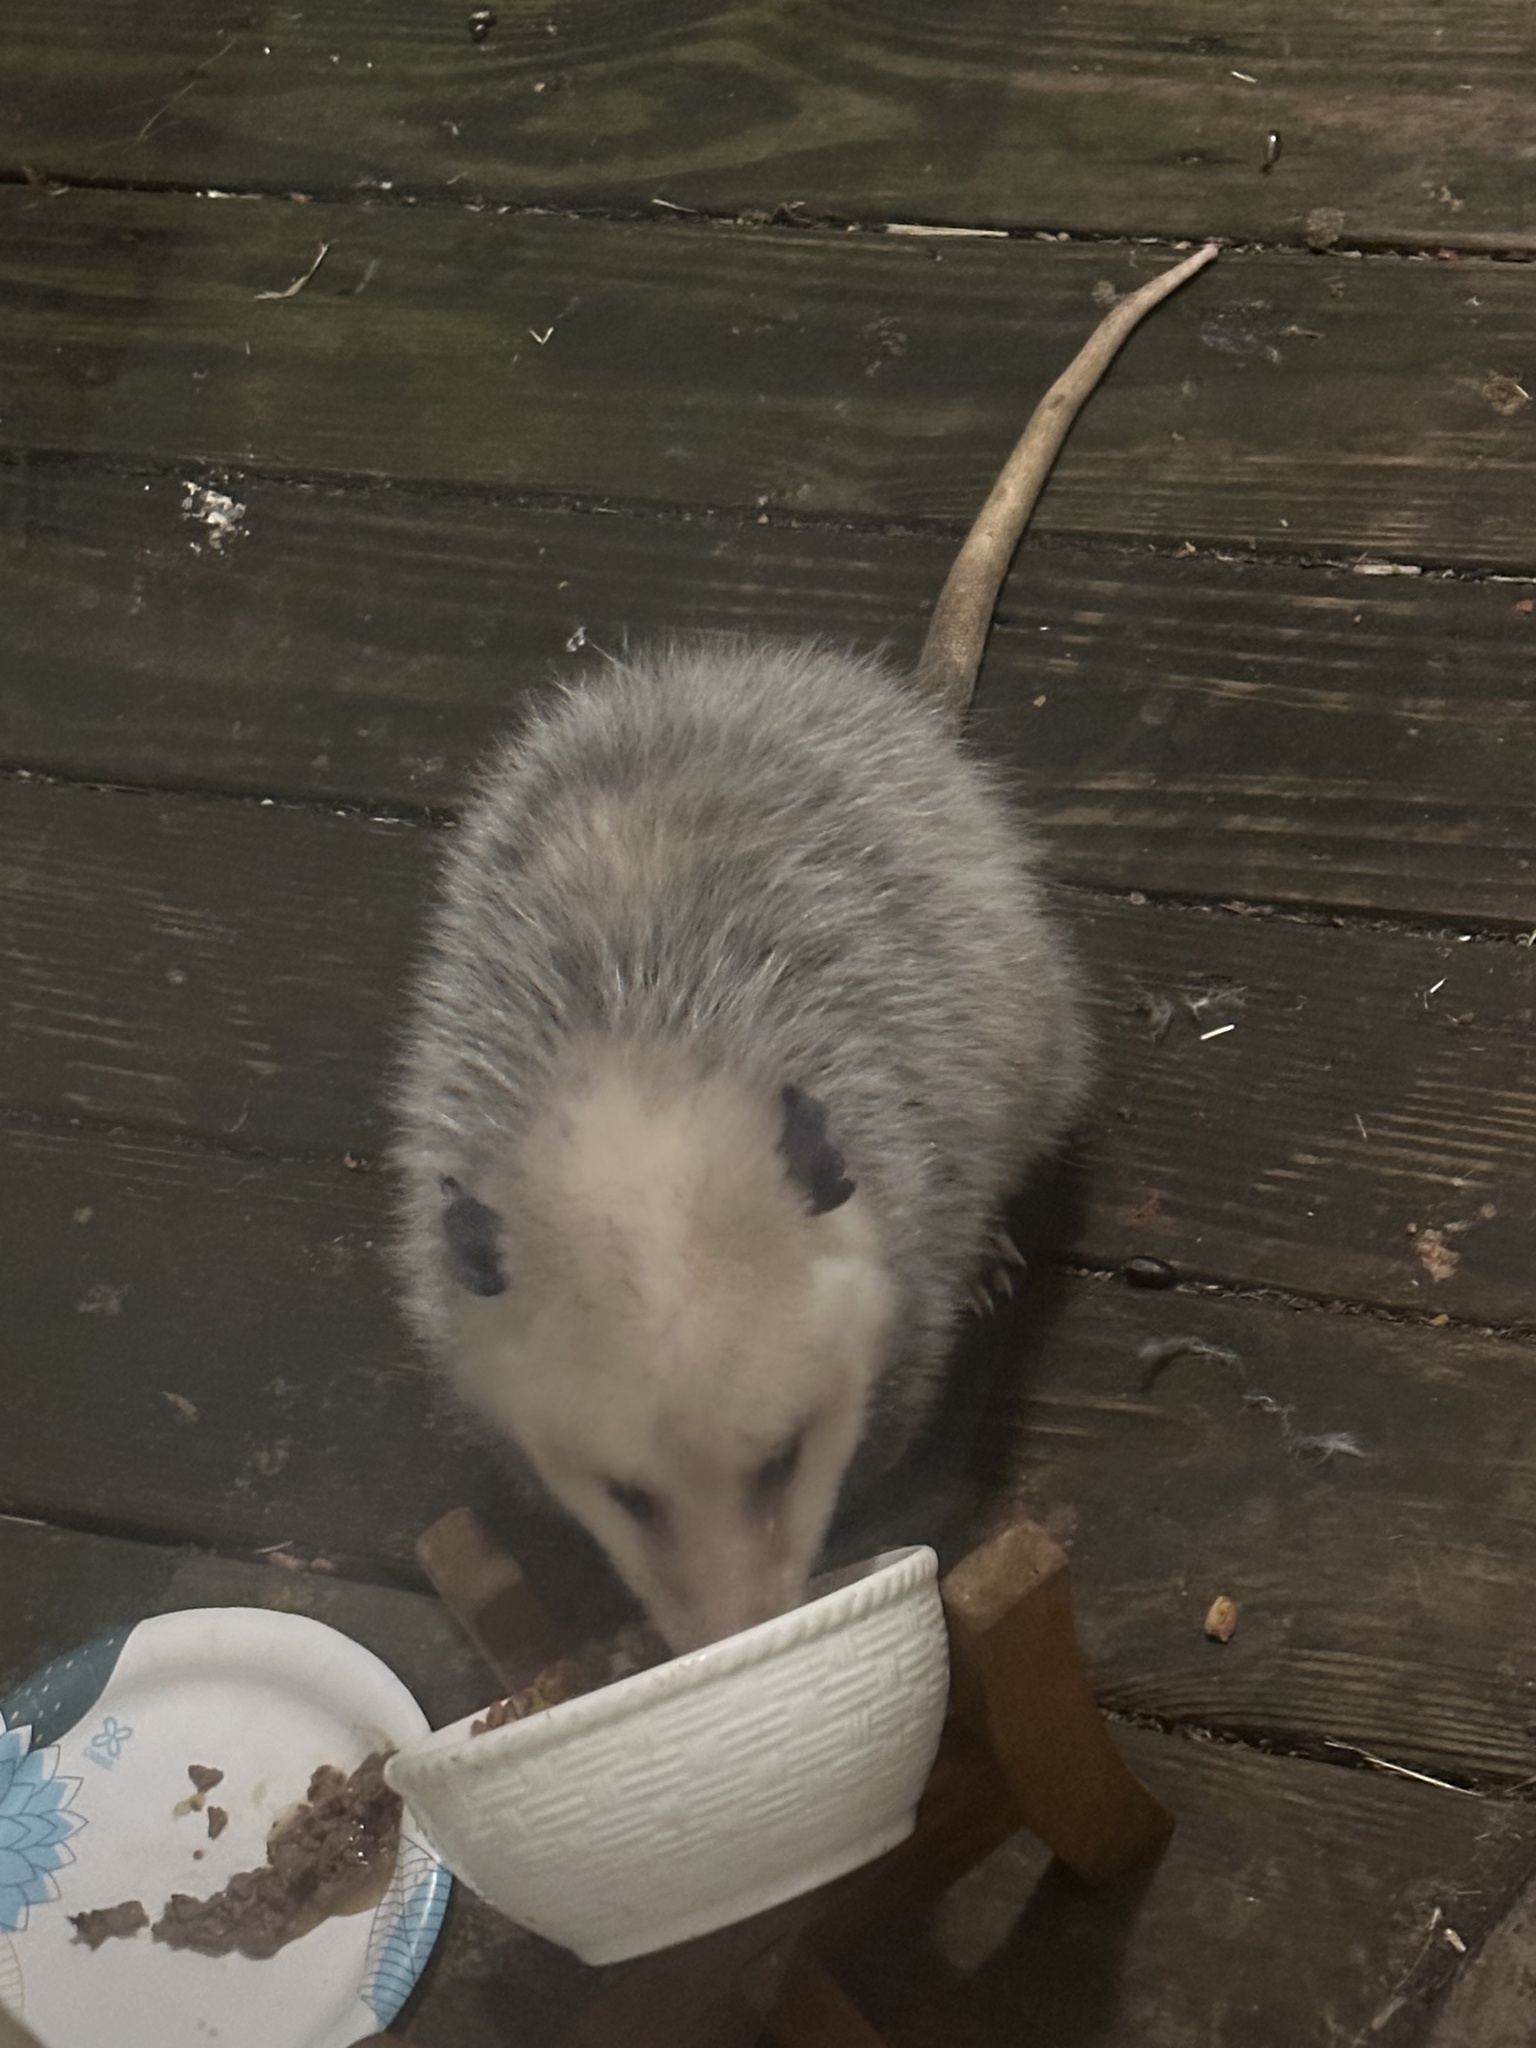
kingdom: Animalia
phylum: Chordata
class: Mammalia
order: Didelphimorphia
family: Didelphidae
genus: Didelphis
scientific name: Didelphis virginiana
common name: Virginia opossum
